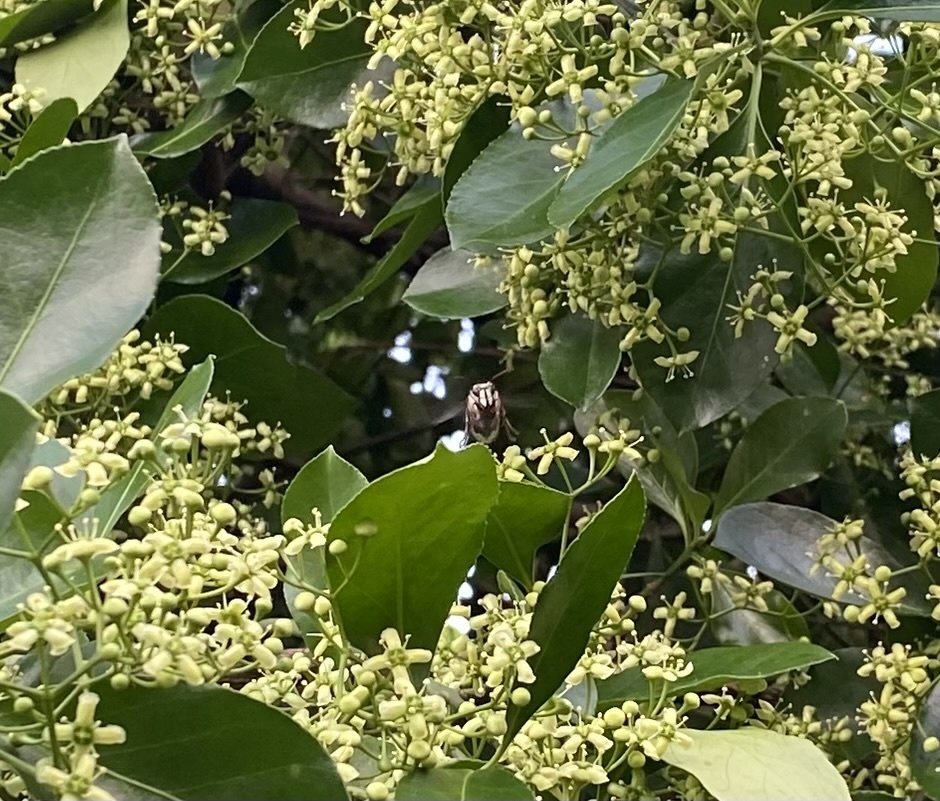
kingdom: Animalia
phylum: Arthropoda
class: Insecta
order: Hymenoptera
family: Vespidae
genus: Dolichovespula
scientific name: Dolichovespula maculata
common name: Bald-faced hornet
